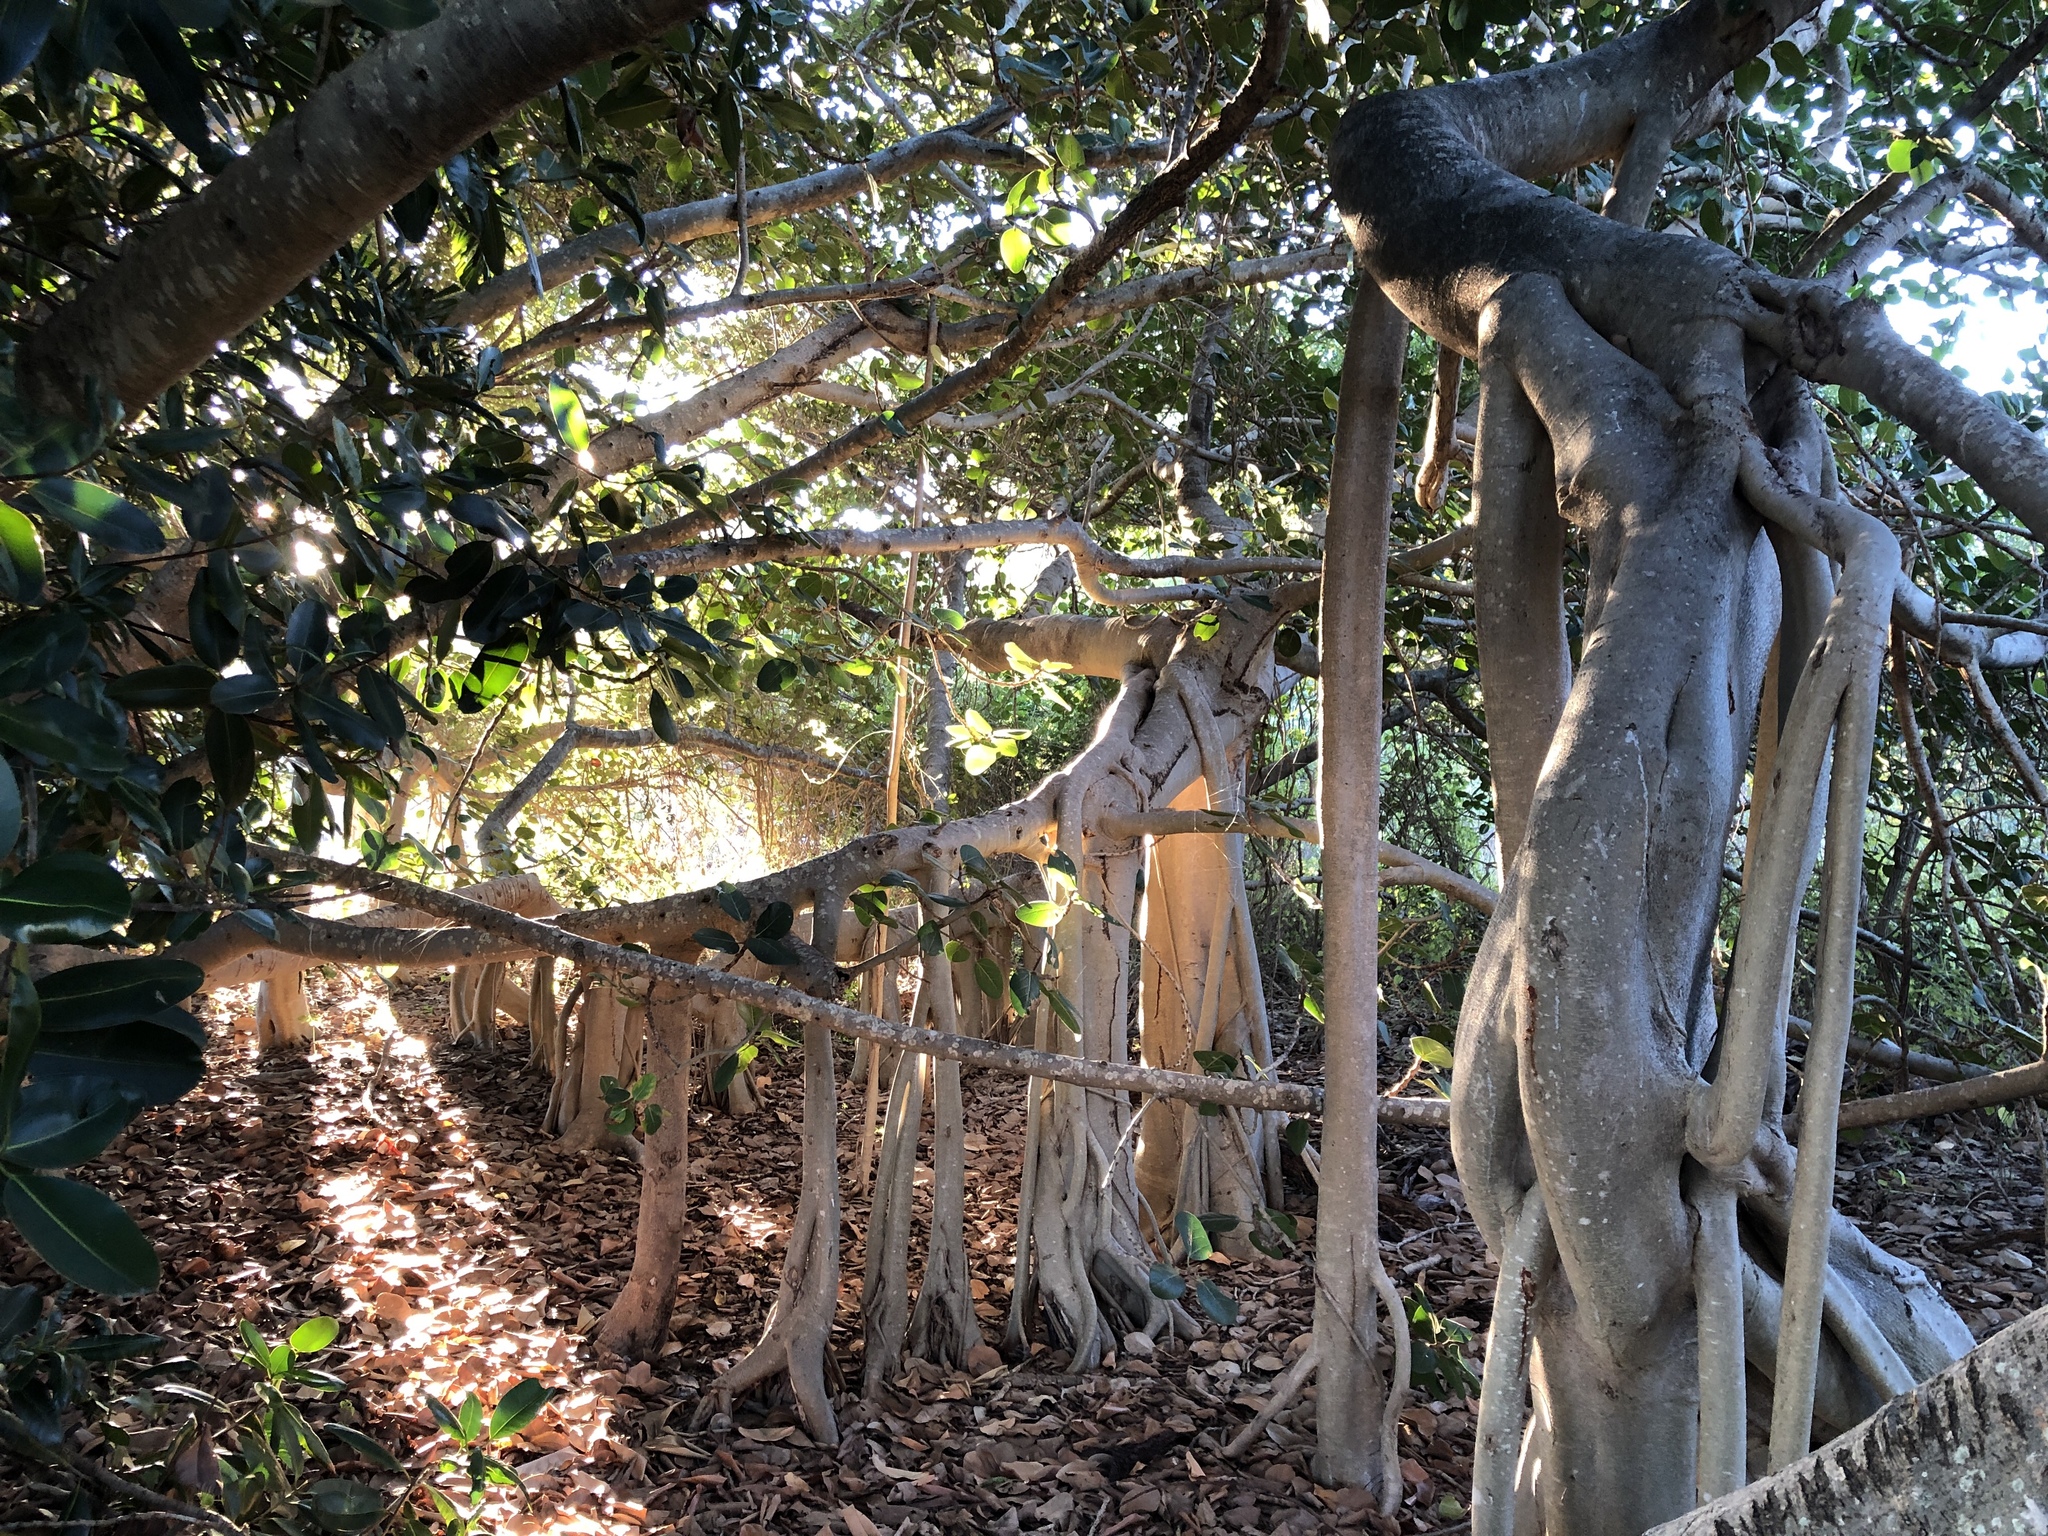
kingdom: Plantae
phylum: Tracheophyta
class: Magnoliopsida
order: Rosales
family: Moraceae
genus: Ficus
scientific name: Ficus benghalensis
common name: Indian banyan
